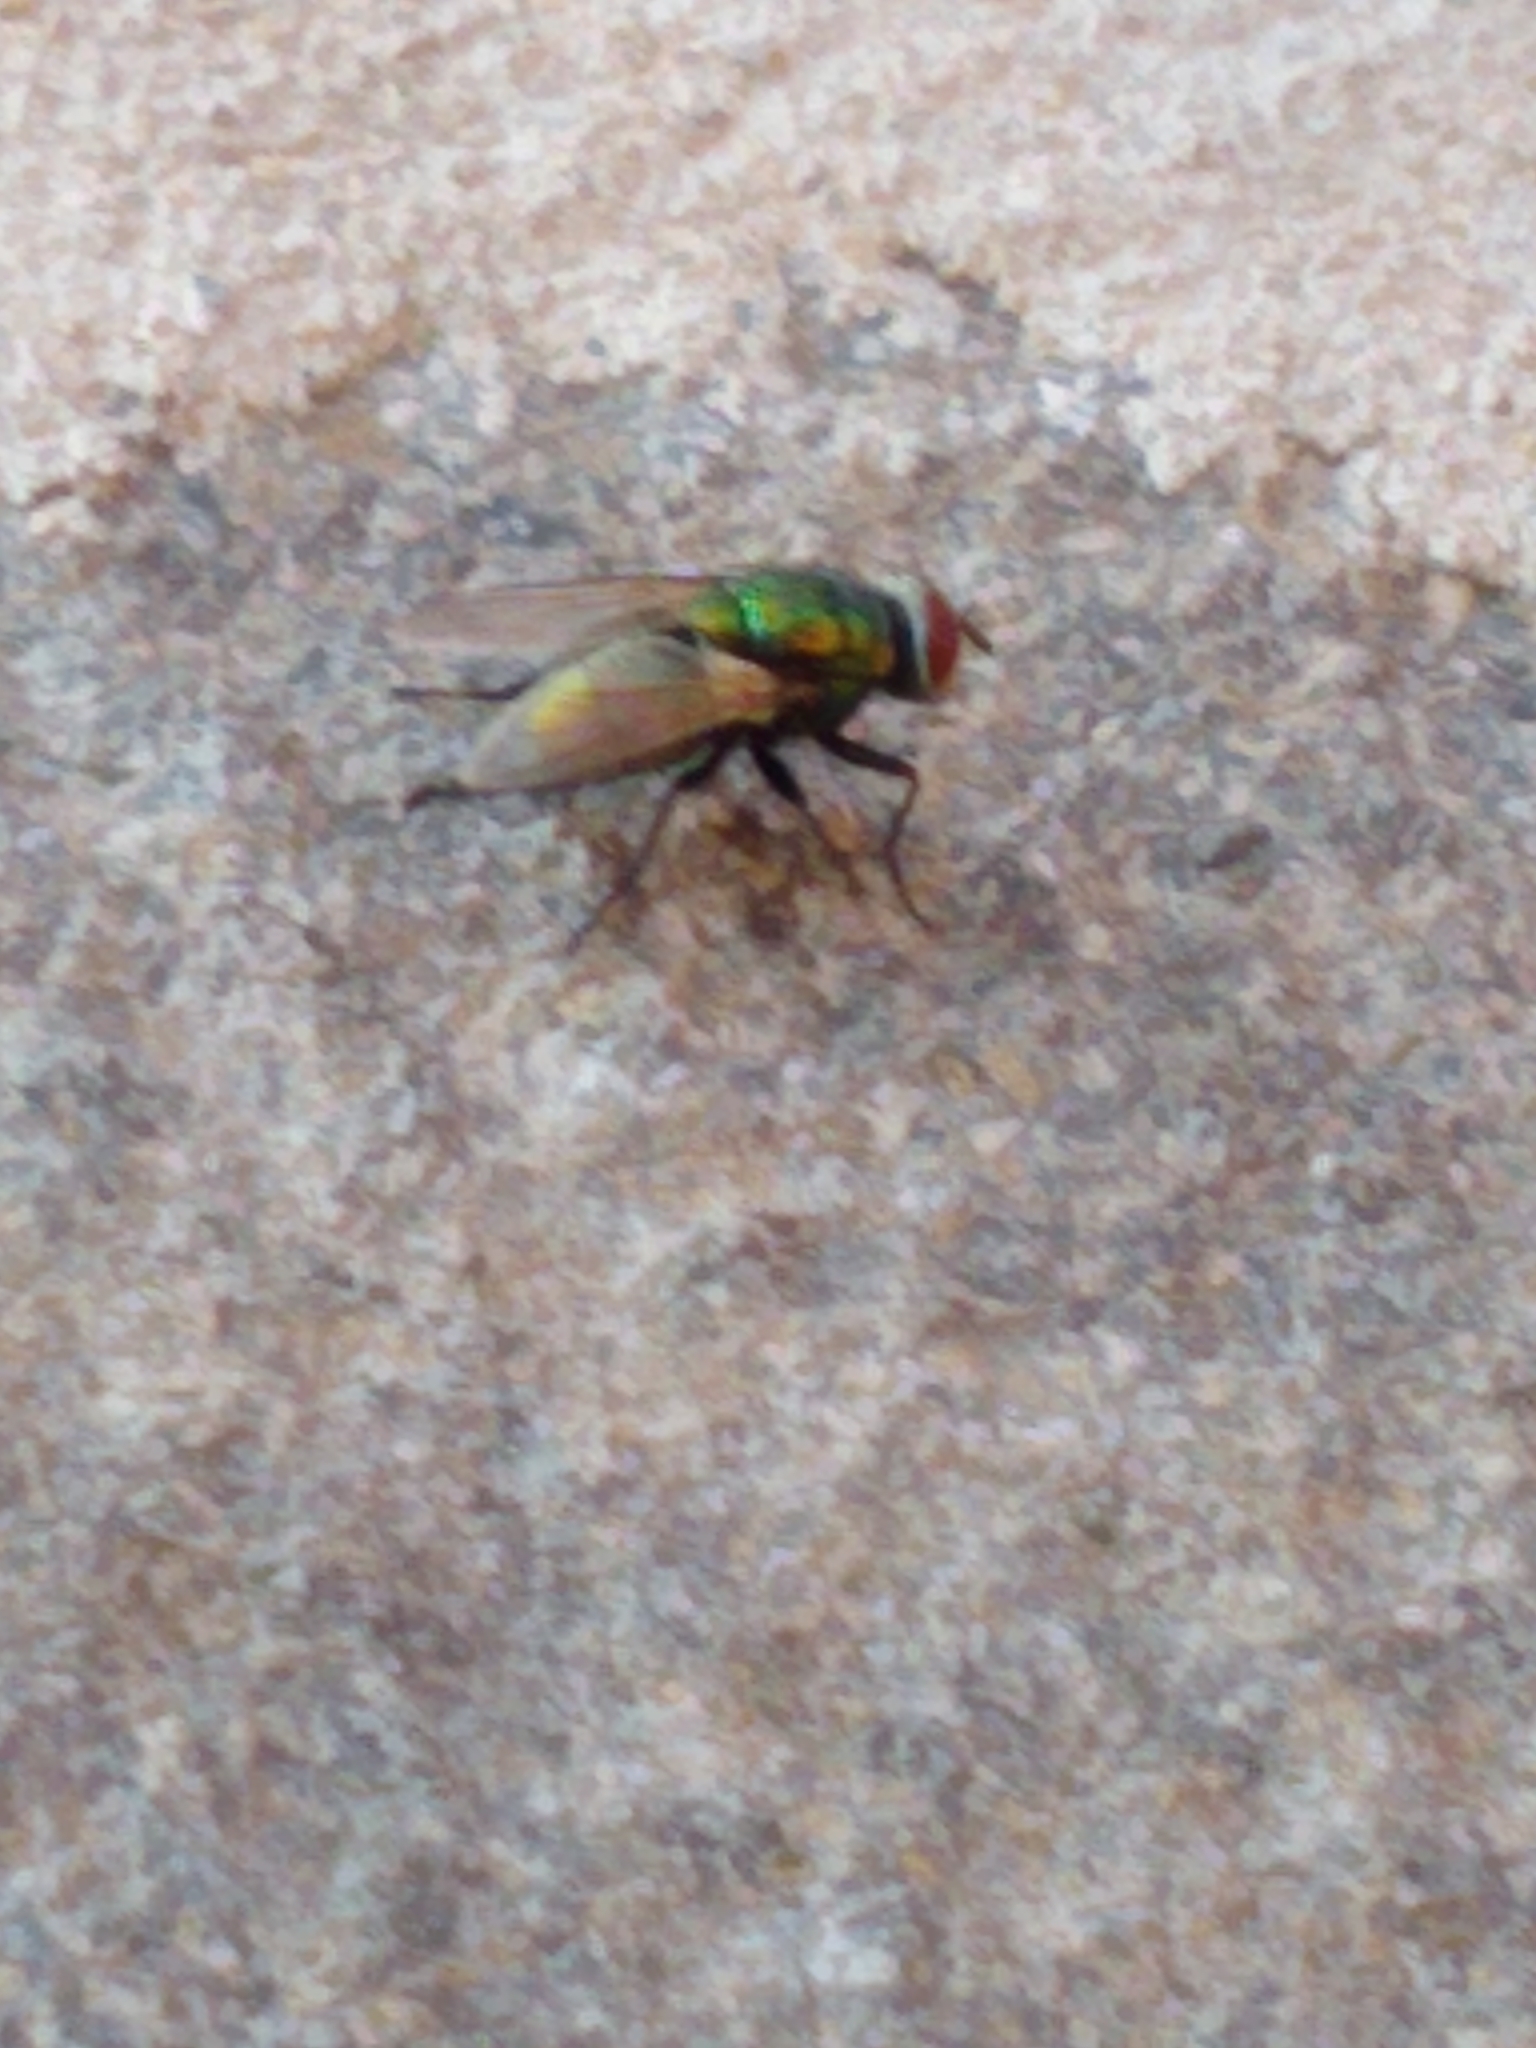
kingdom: Animalia
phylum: Arthropoda
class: Insecta
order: Diptera
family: Calliphoridae
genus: Lucilia
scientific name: Lucilia sericata
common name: Blow fly
